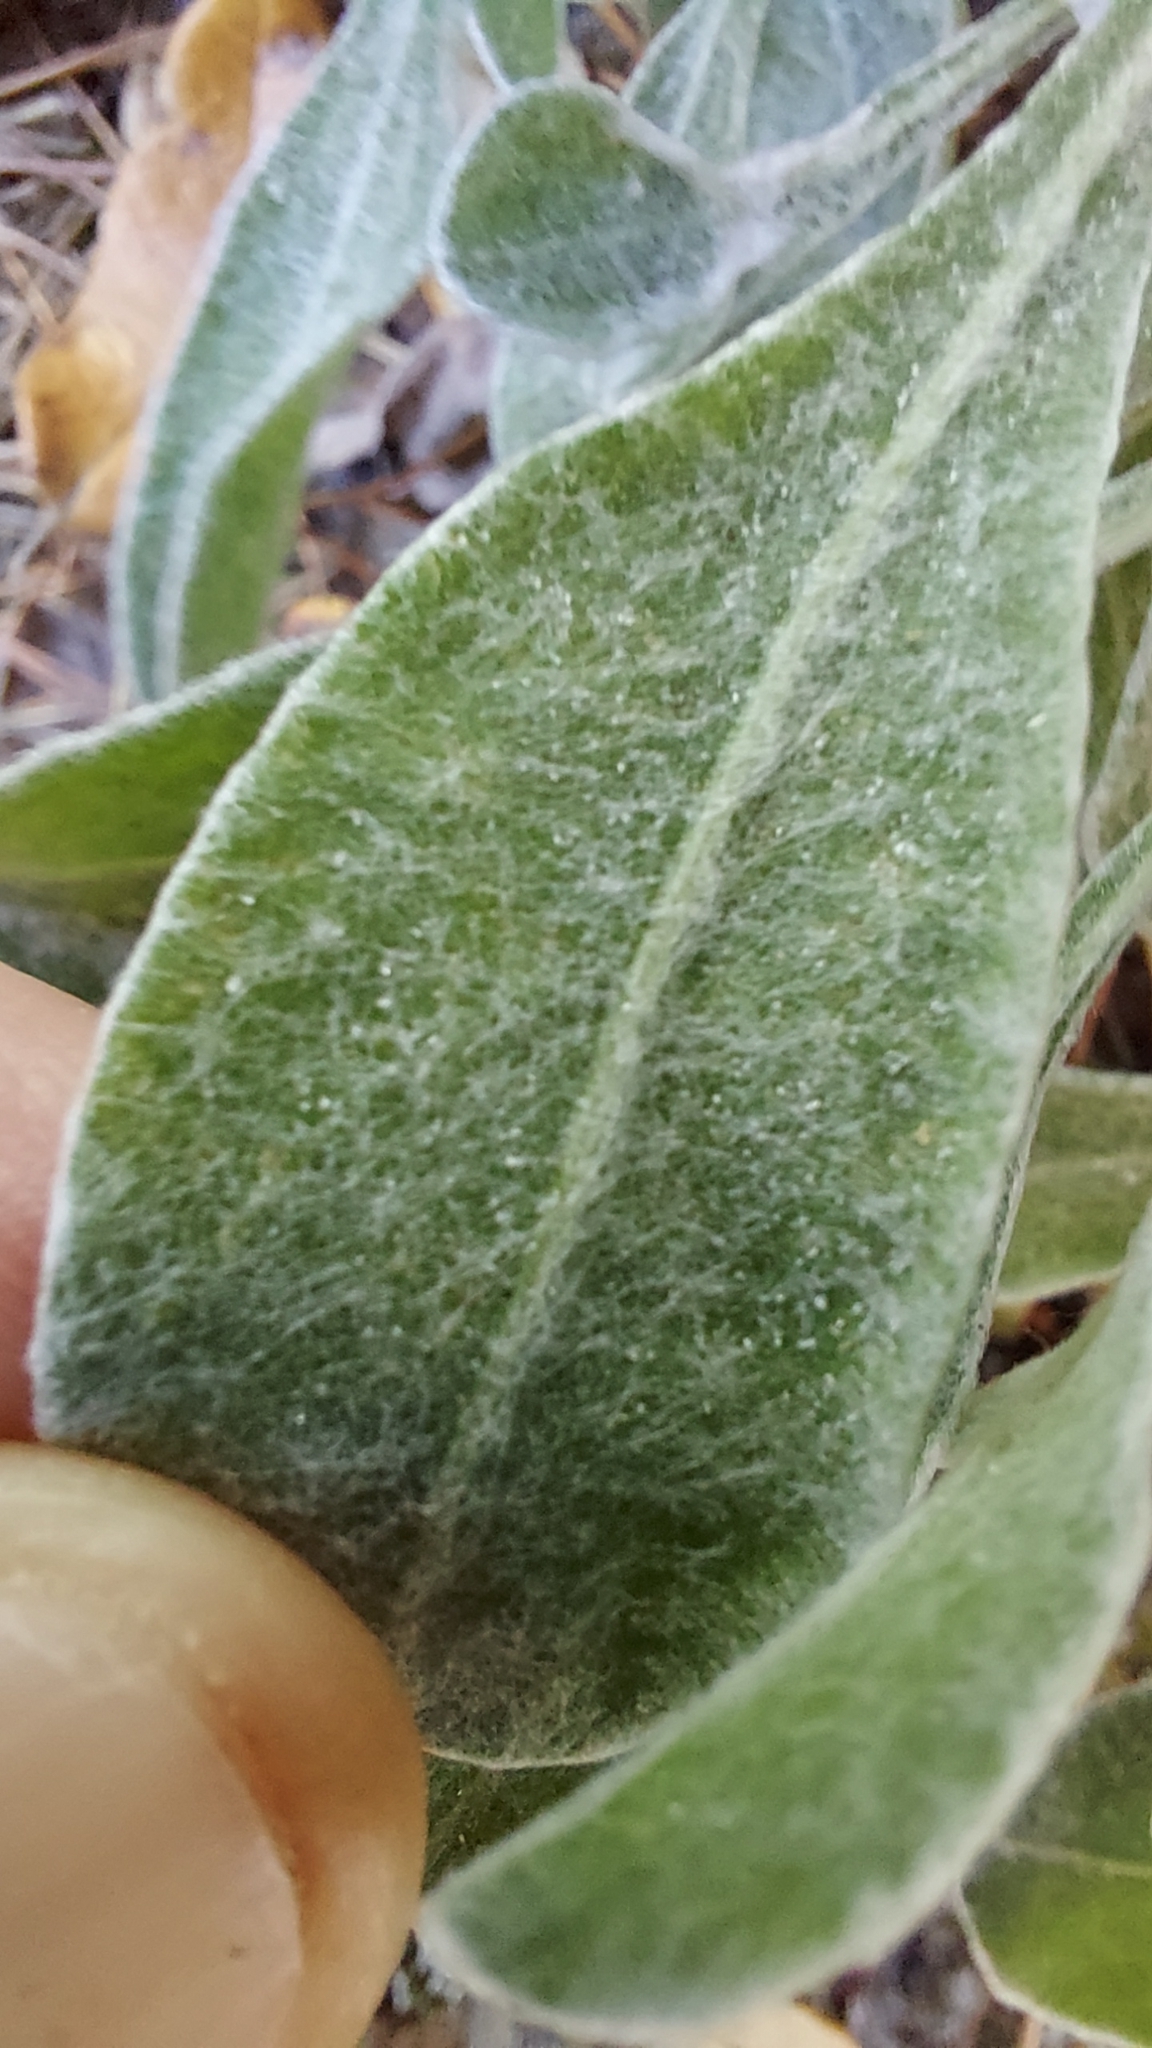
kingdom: Plantae
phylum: Tracheophyta
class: Magnoliopsida
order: Asterales
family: Asteraceae
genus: Chrysopsis
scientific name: Chrysopsis floridana
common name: Florida golden-aster
